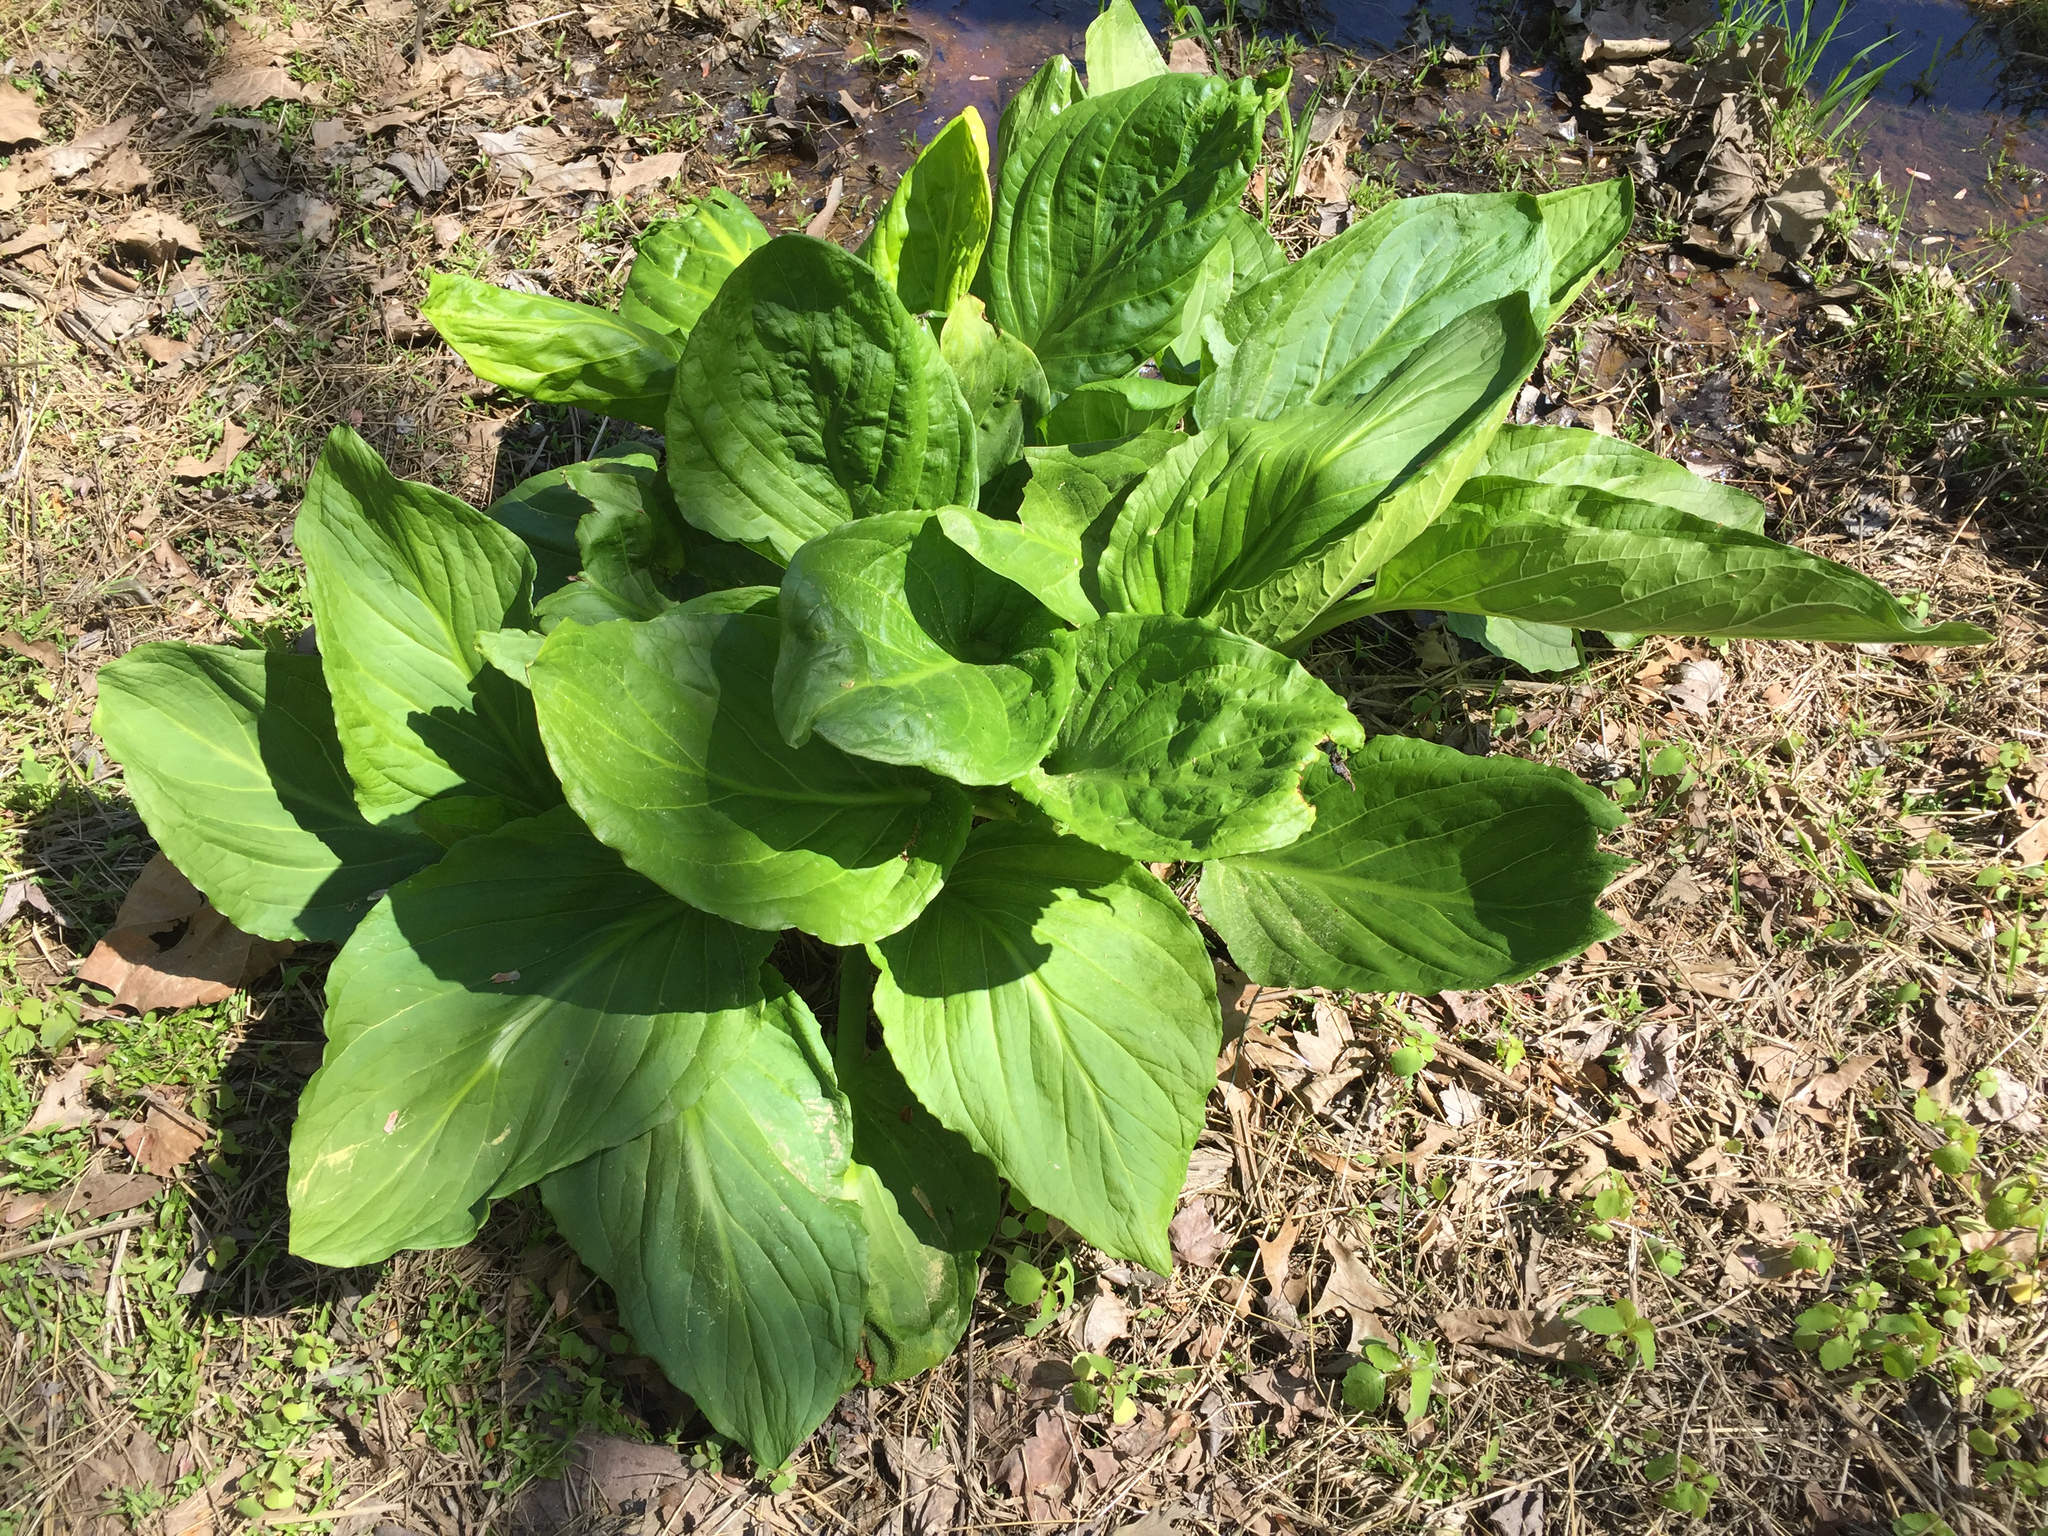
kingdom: Plantae
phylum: Tracheophyta
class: Liliopsida
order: Alismatales
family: Araceae
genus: Symplocarpus
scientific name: Symplocarpus foetidus
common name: Eastern skunk cabbage
